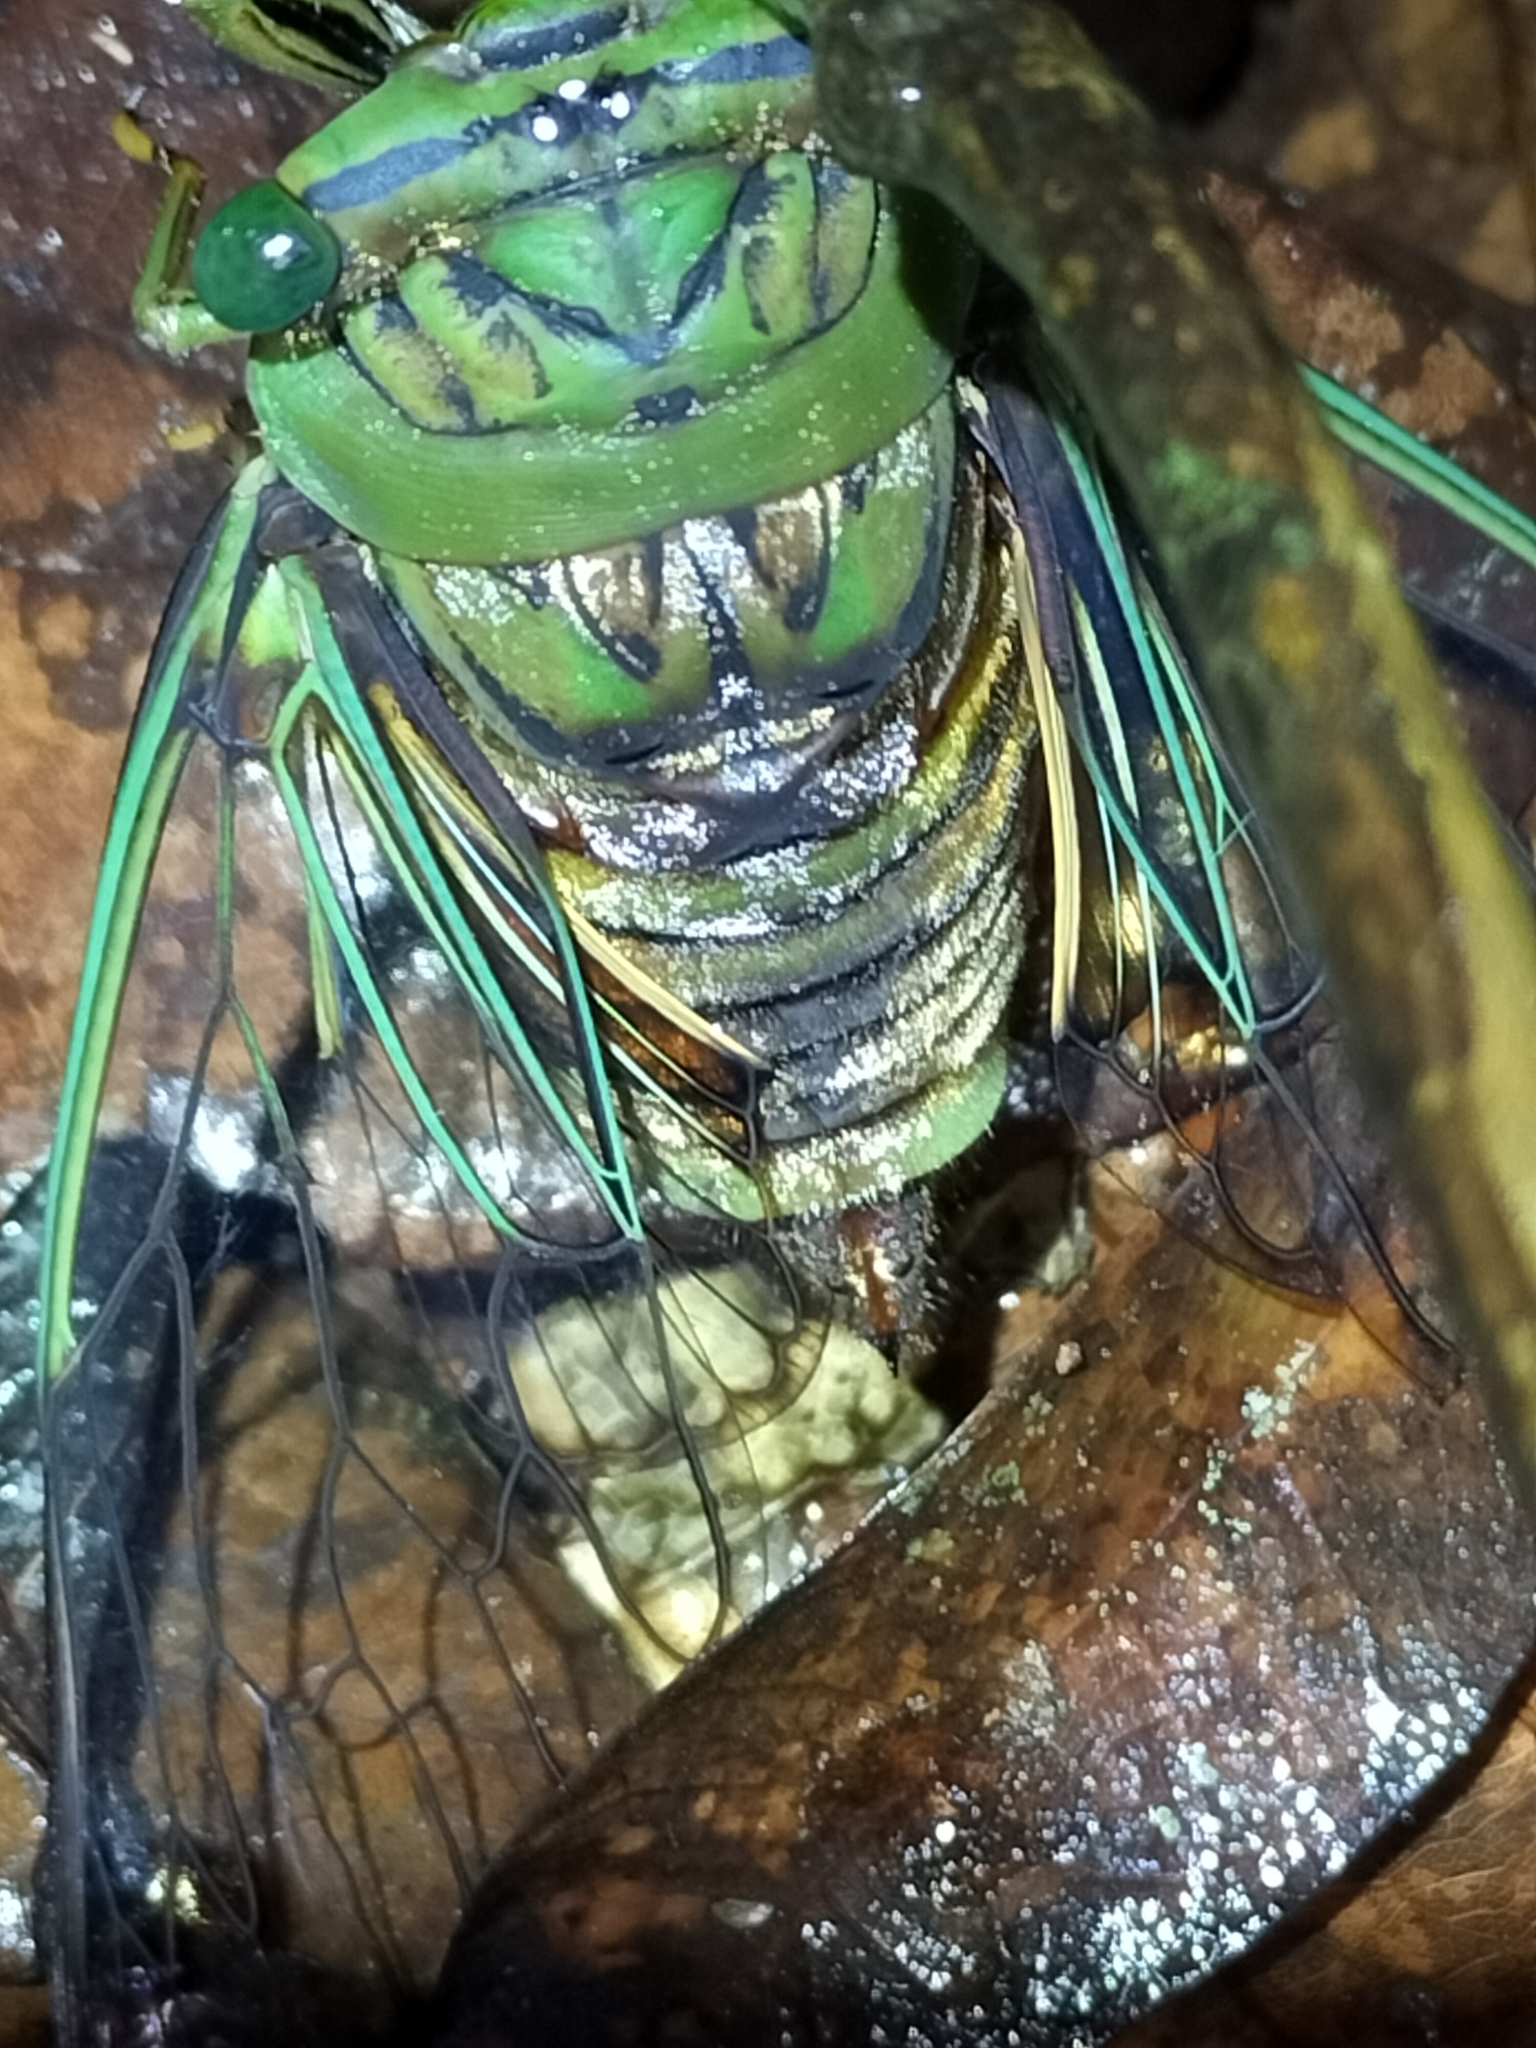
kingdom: Animalia
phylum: Arthropoda
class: Insecta
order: Hemiptera
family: Cicadidae
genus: Anapsaltoda
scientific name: Anapsaltoda pulchra
